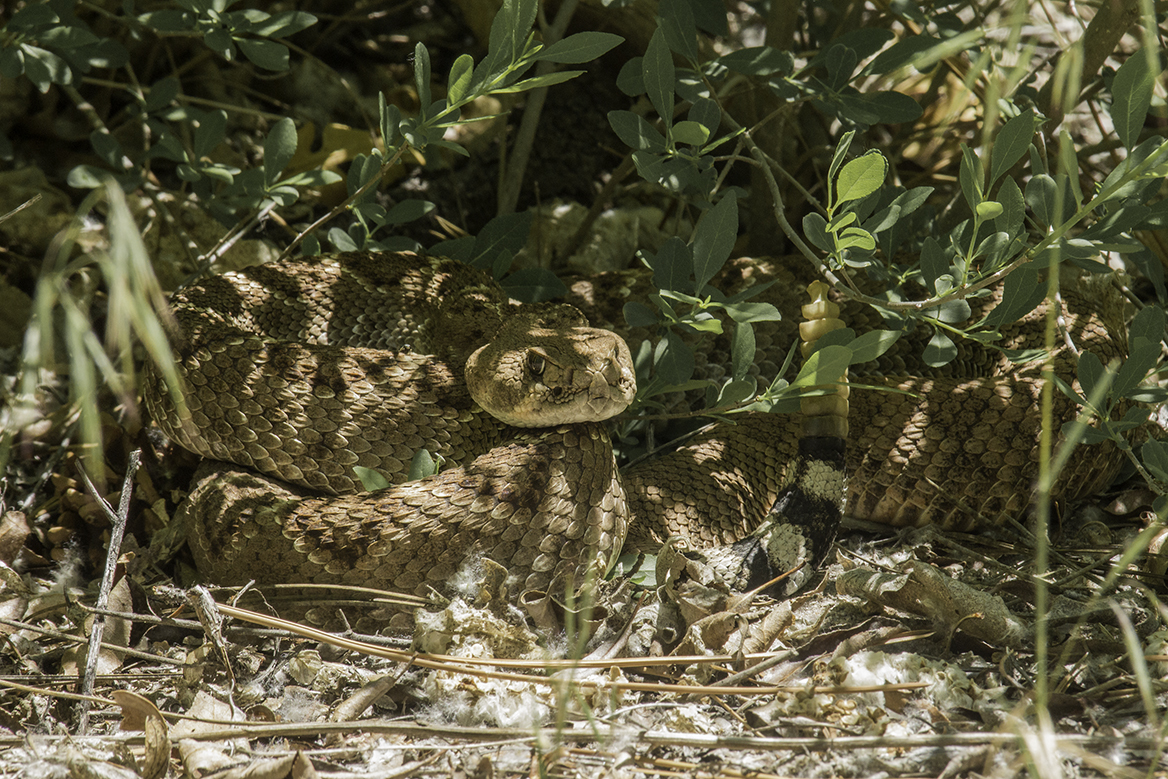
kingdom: Animalia
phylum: Chordata
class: Squamata
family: Viperidae
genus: Crotalus
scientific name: Crotalus atrox
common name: Western diamond-backed rattlesnake
